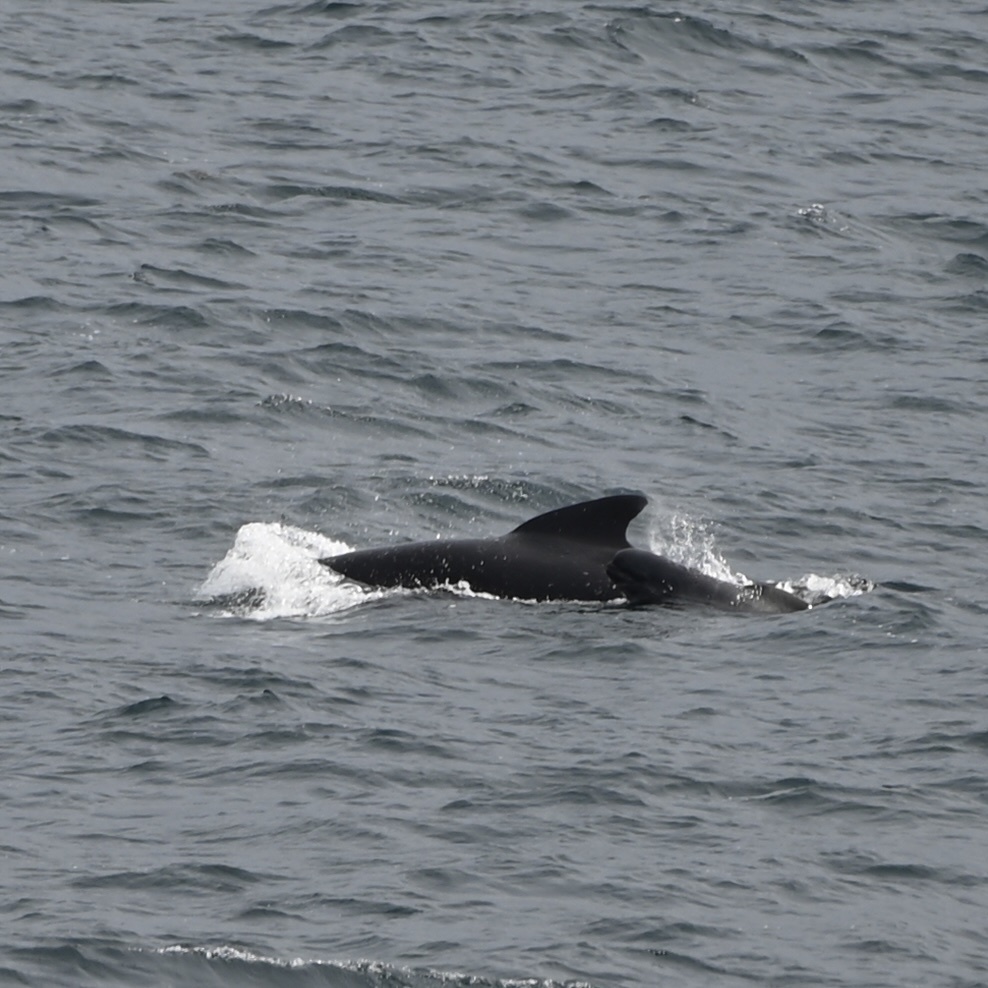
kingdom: Animalia
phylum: Chordata
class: Mammalia
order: Cetacea
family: Delphinidae
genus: Globicephala
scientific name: Globicephala melas
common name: Long-finned pilot whale
